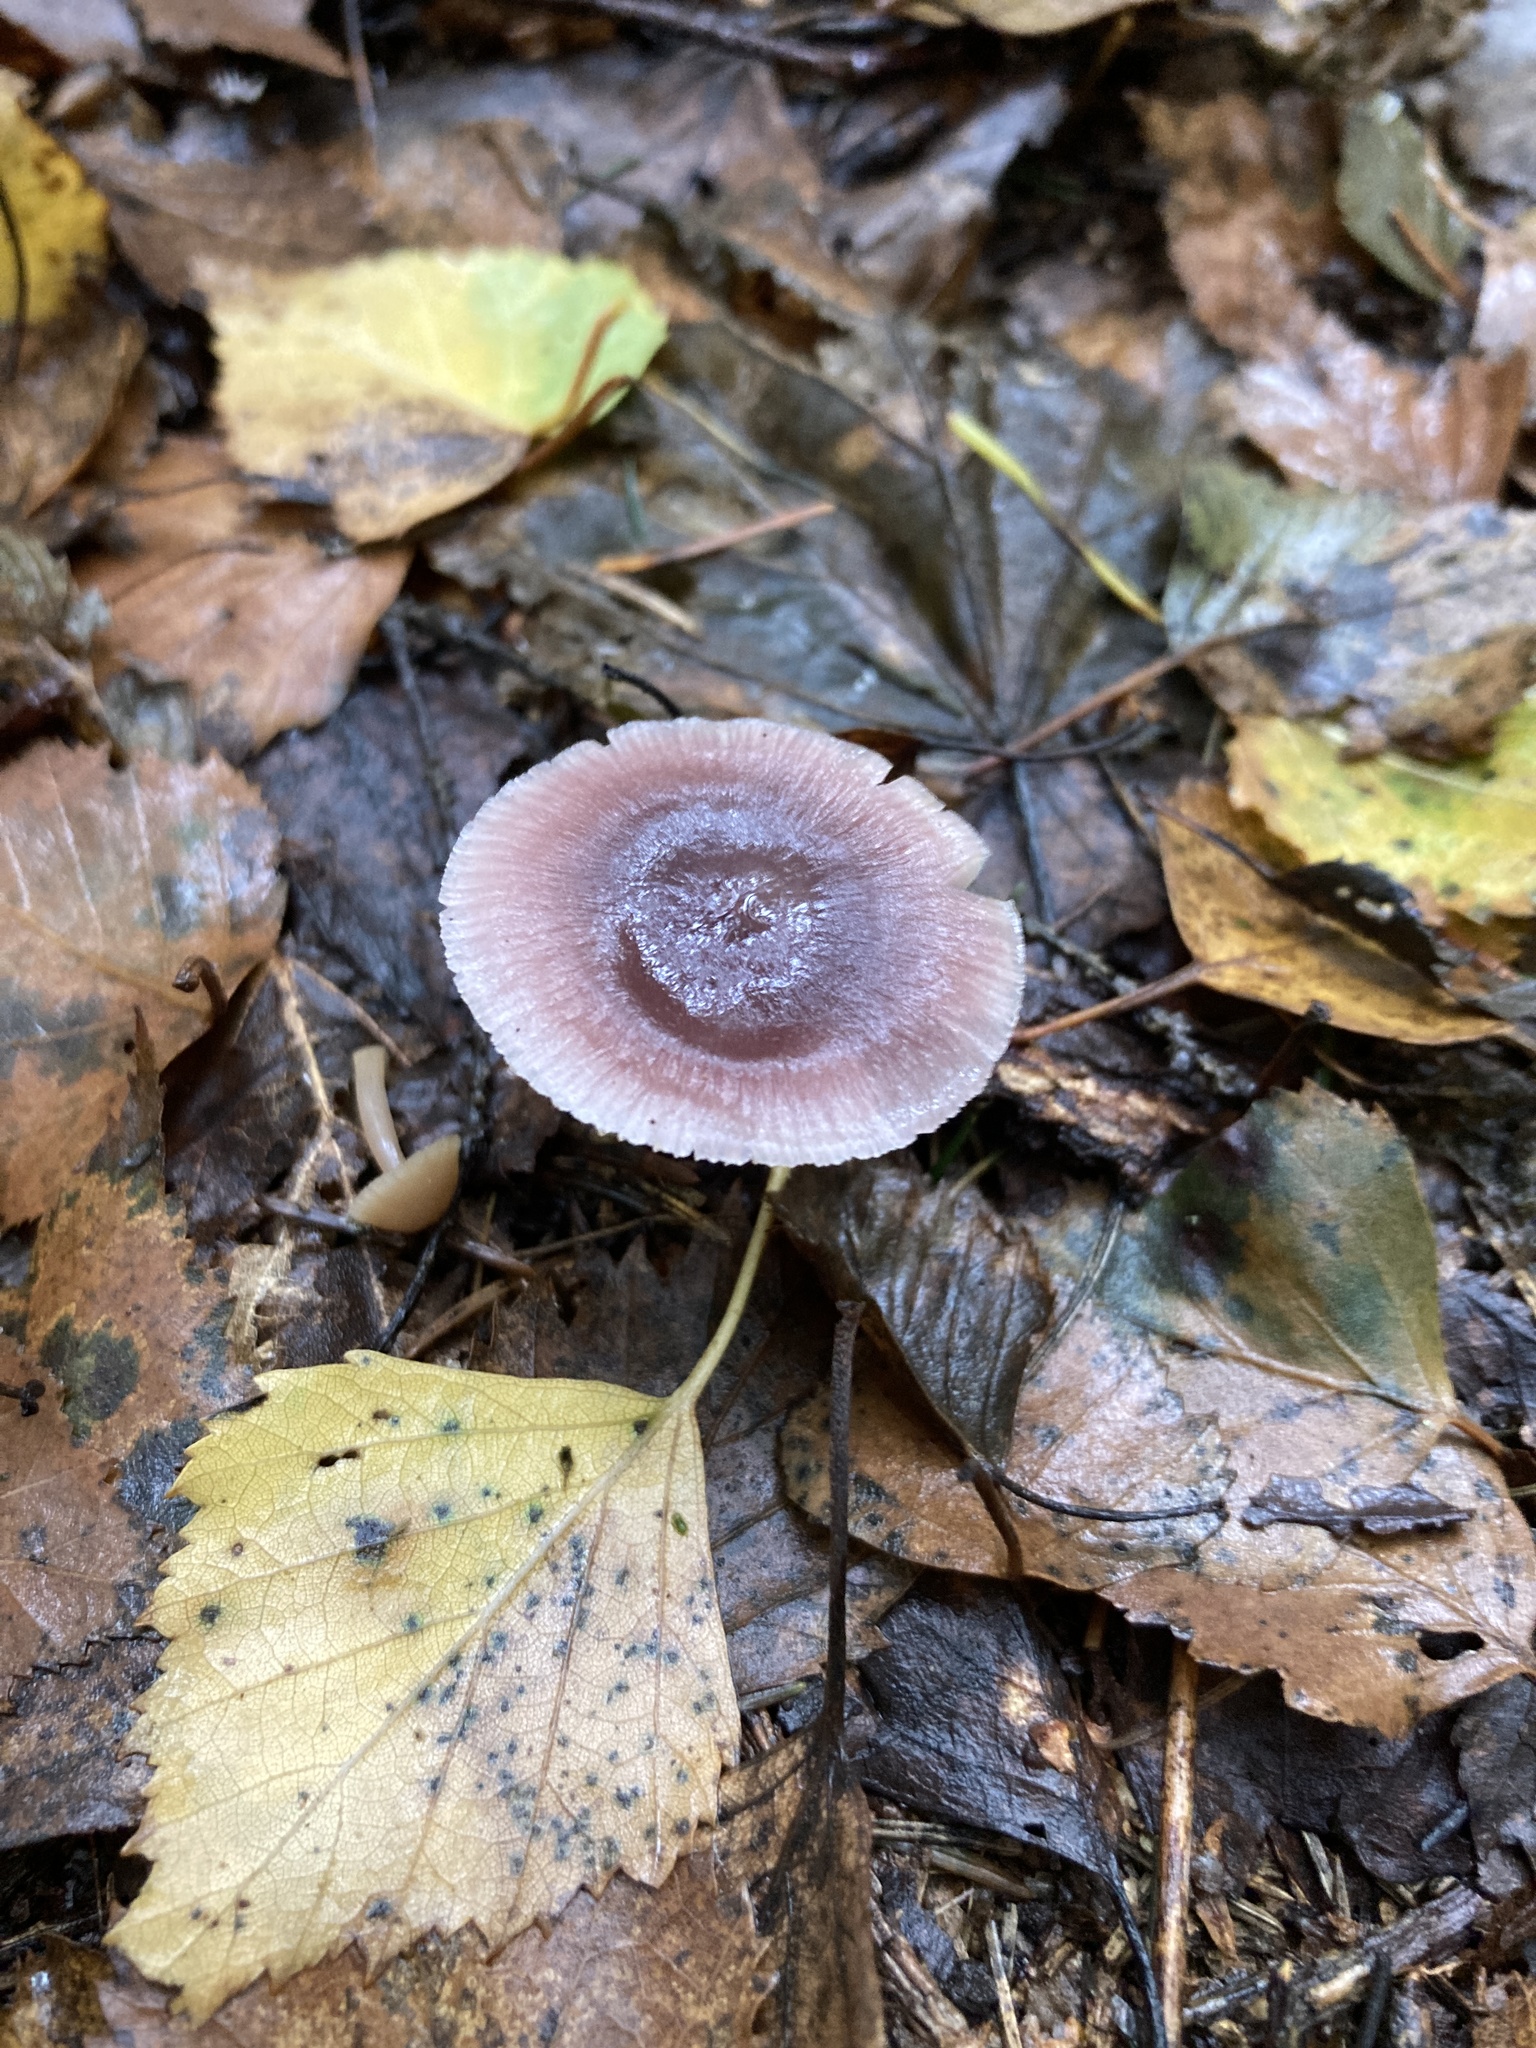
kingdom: Fungi
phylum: Basidiomycota
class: Agaricomycetes
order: Agaricales
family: Mycenaceae
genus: Mycena
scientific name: Mycena pura
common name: Lilac bonnet
